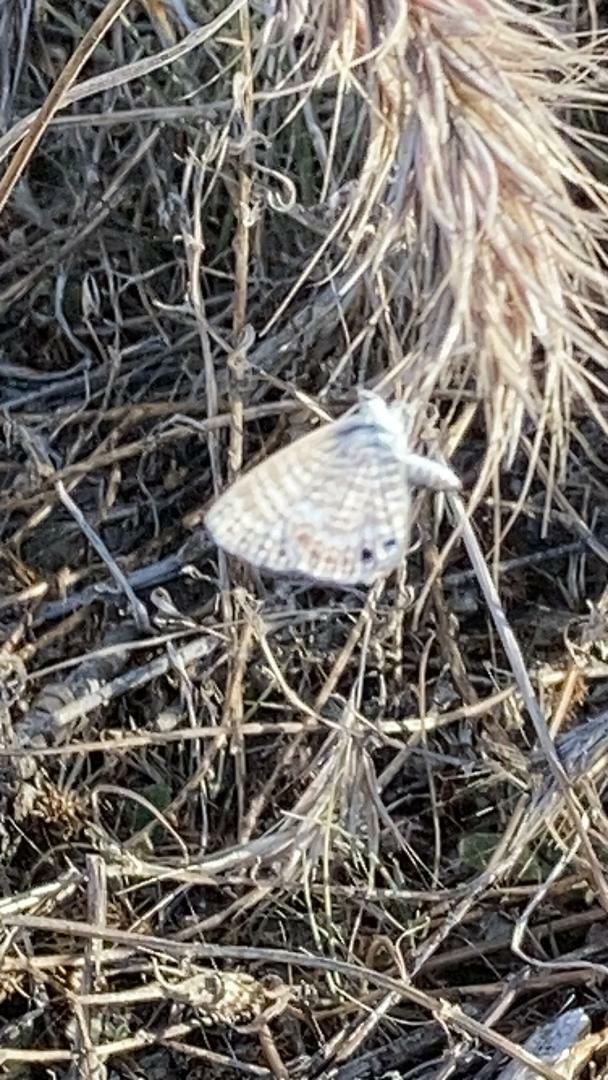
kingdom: Animalia
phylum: Arthropoda
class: Insecta
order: Lepidoptera
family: Lycaenidae
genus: Leptotes
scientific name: Leptotes marina
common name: Marine blue
